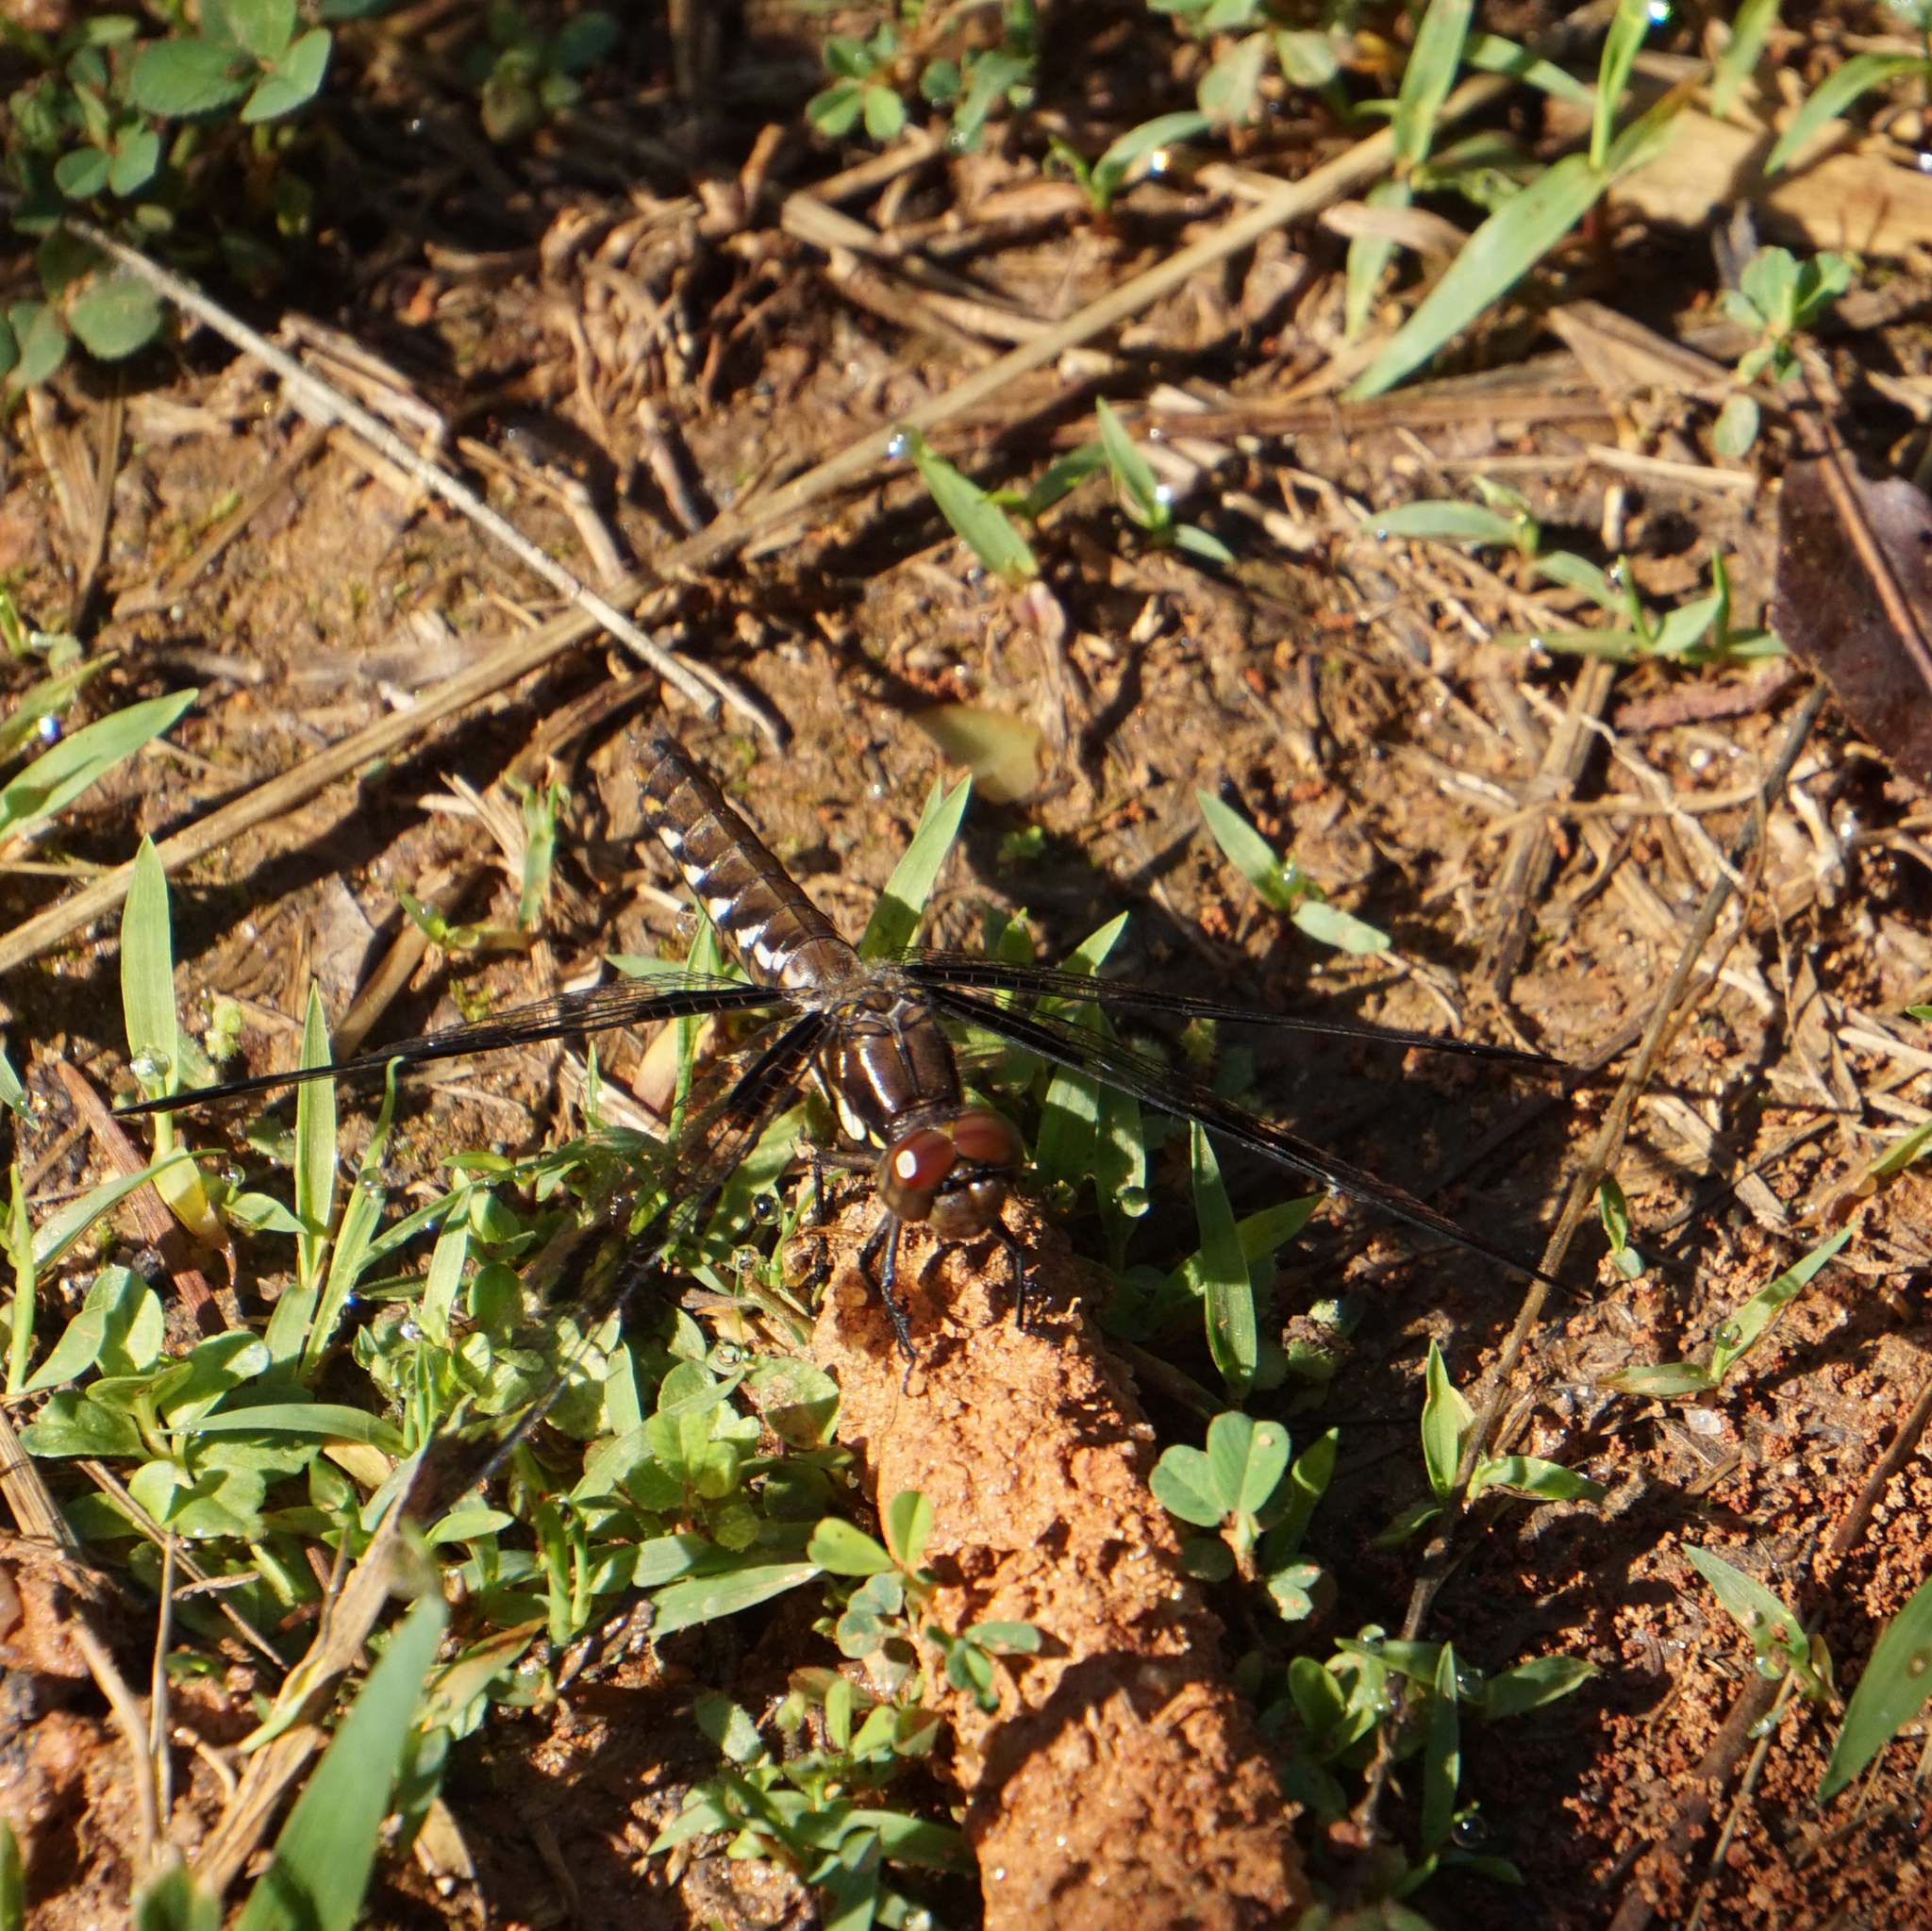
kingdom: Animalia
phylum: Arthropoda
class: Insecta
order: Odonata
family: Libellulidae
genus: Plathemis
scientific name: Plathemis lydia
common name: Common whitetail
